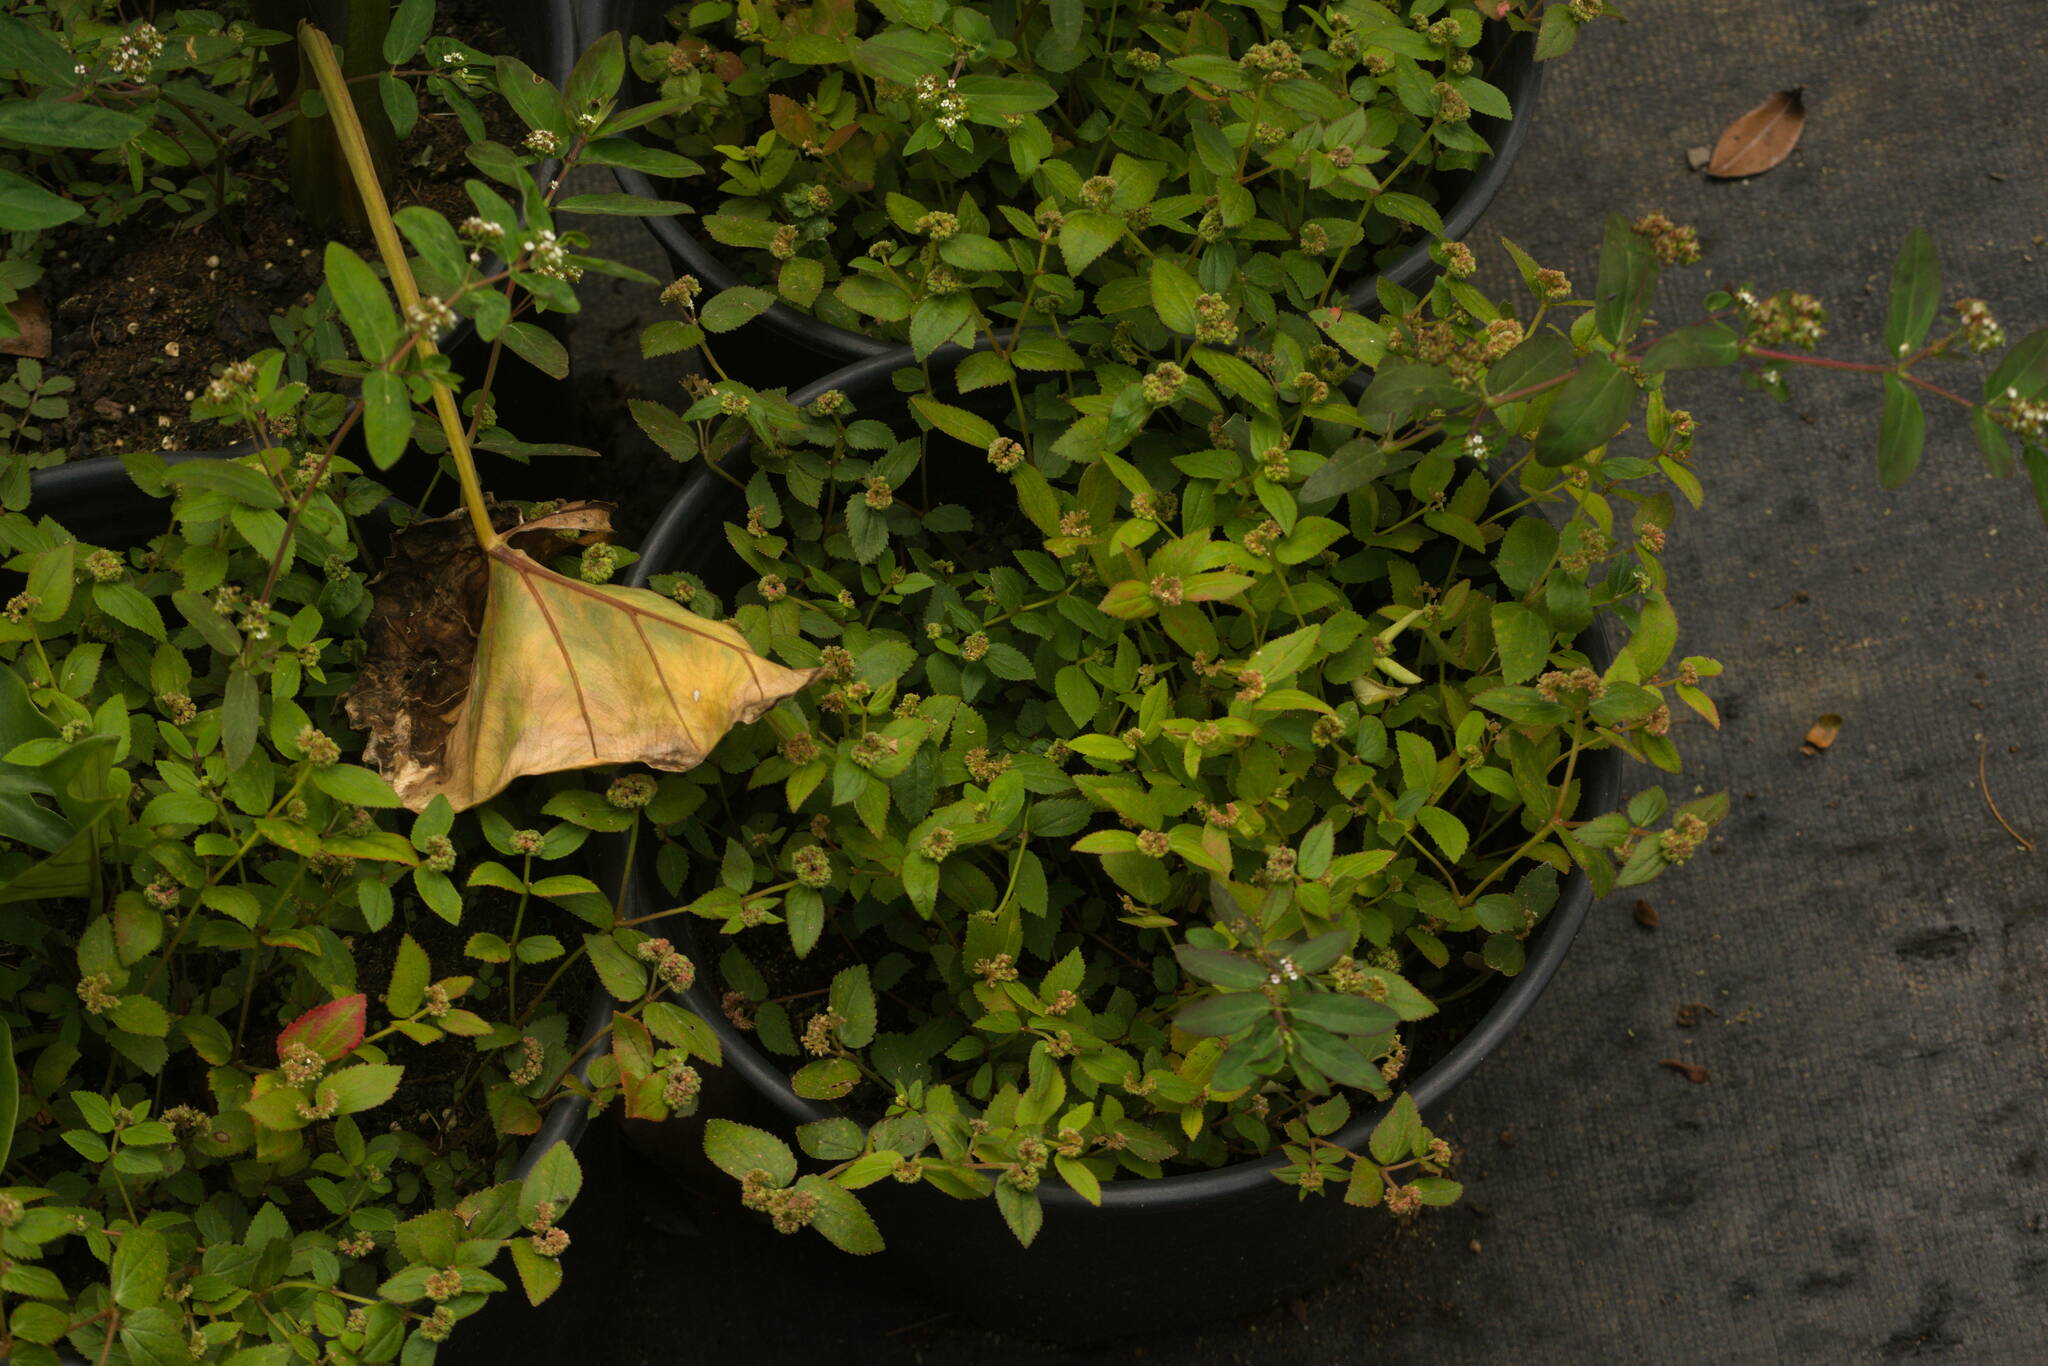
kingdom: Plantae
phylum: Tracheophyta
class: Magnoliopsida
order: Malpighiales
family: Euphorbiaceae
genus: Euphorbia
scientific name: Euphorbia ophthalmica
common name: Florida hammock sandmat
